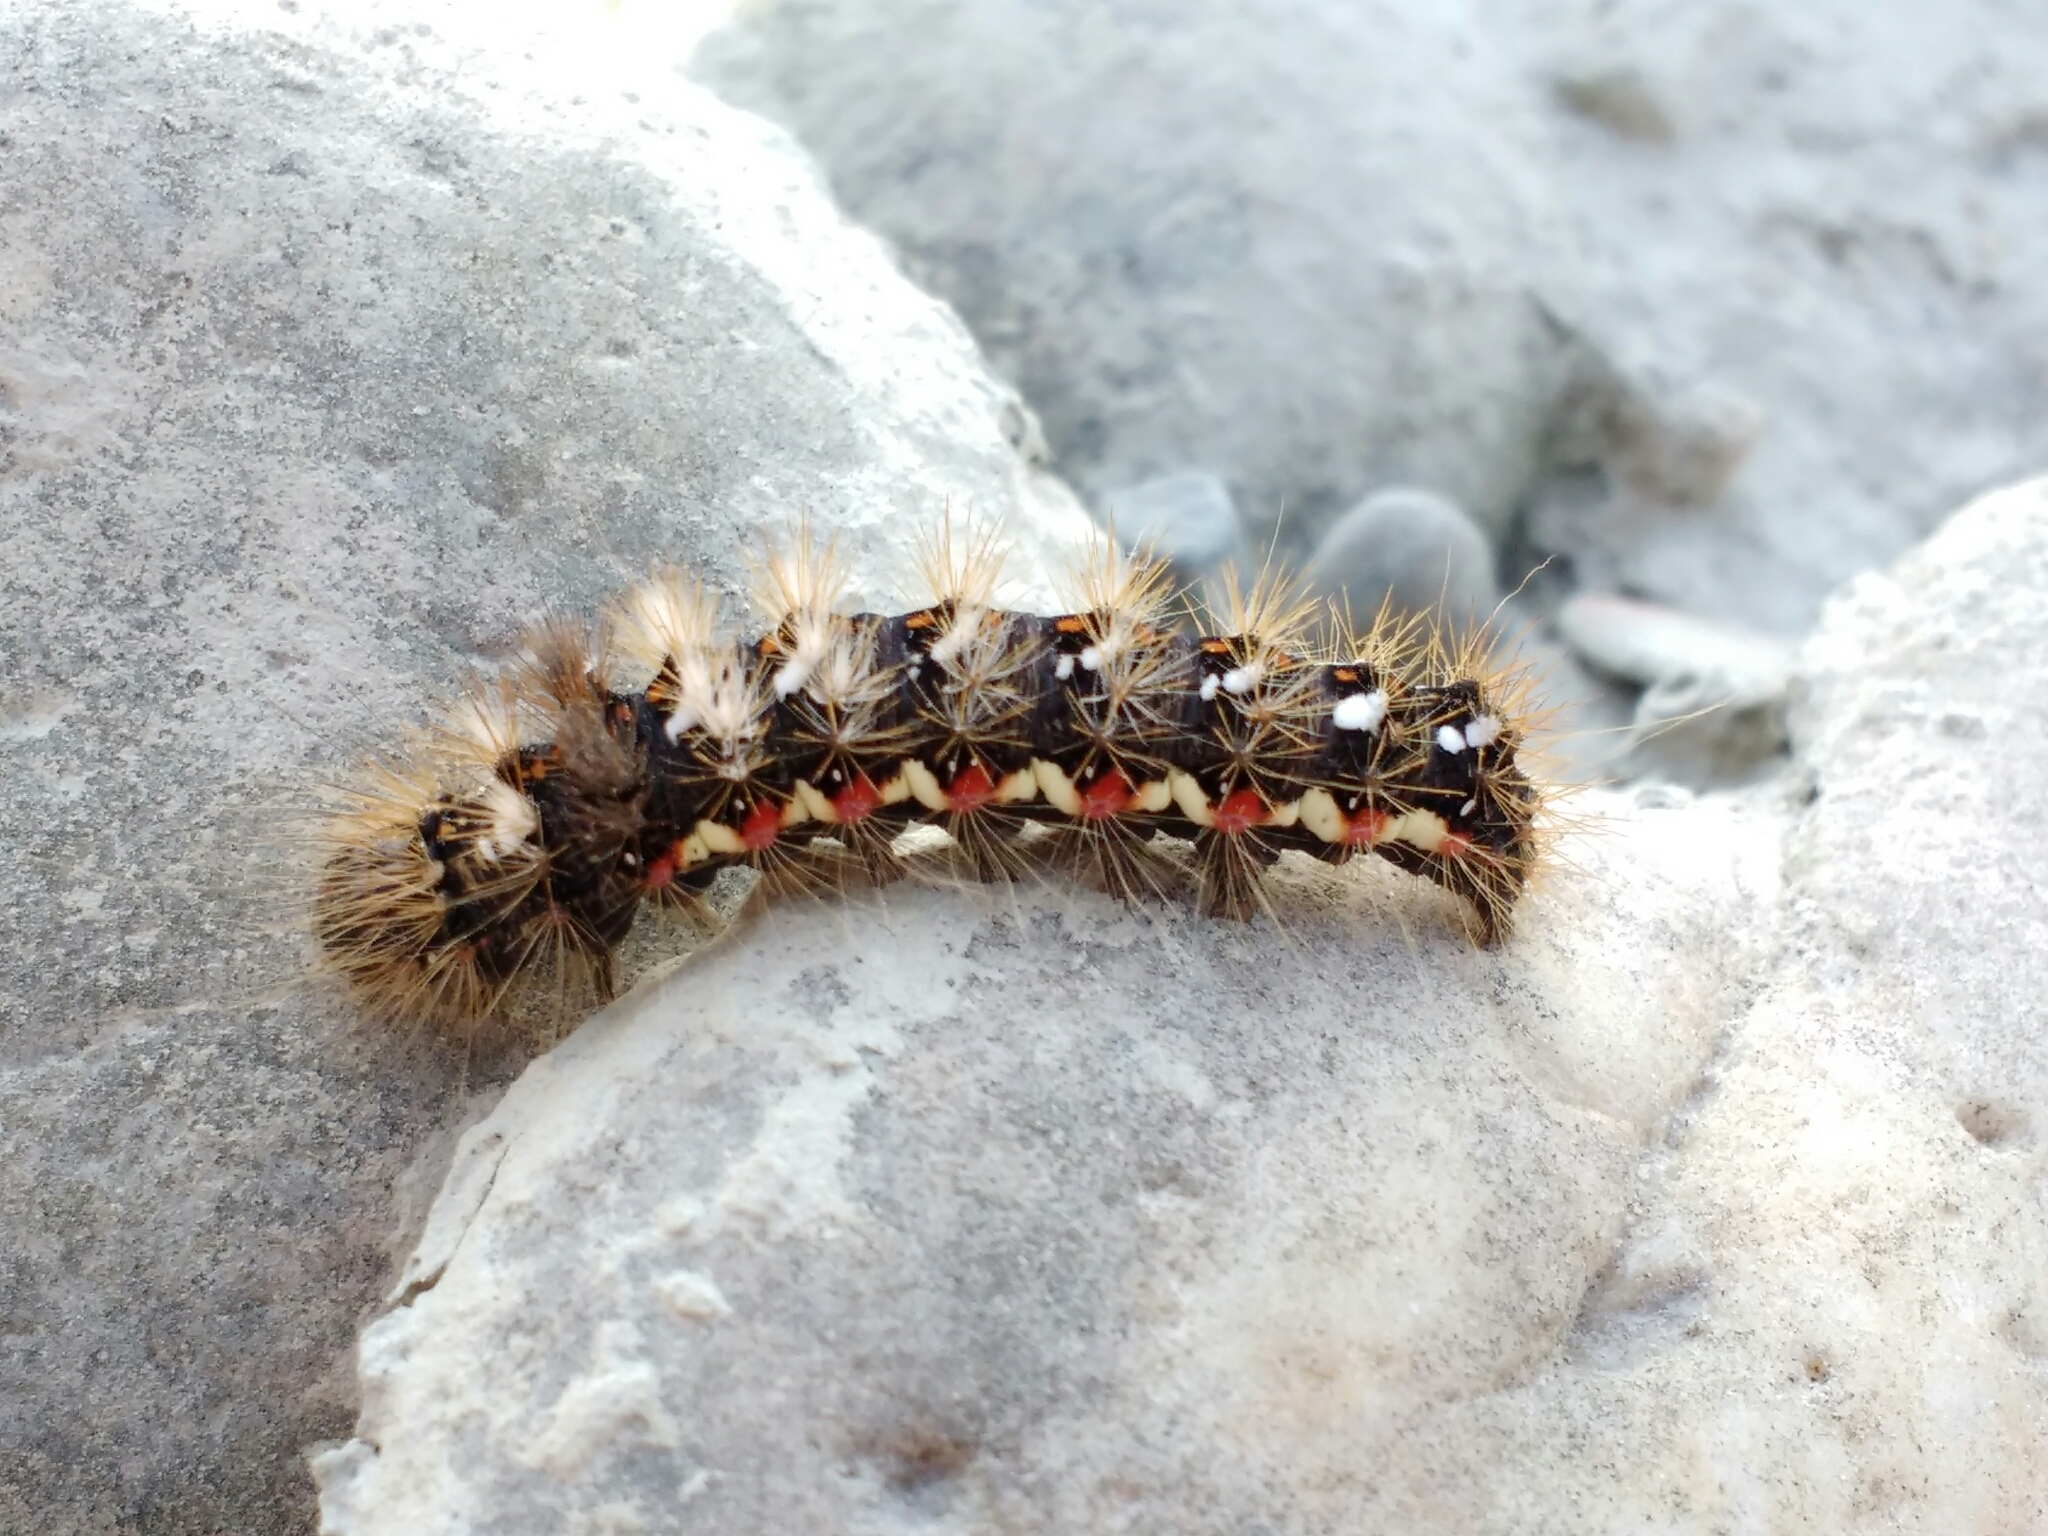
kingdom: Animalia
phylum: Arthropoda
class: Insecta
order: Lepidoptera
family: Noctuidae
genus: Acronicta
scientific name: Acronicta rumicis
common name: Knot grass
